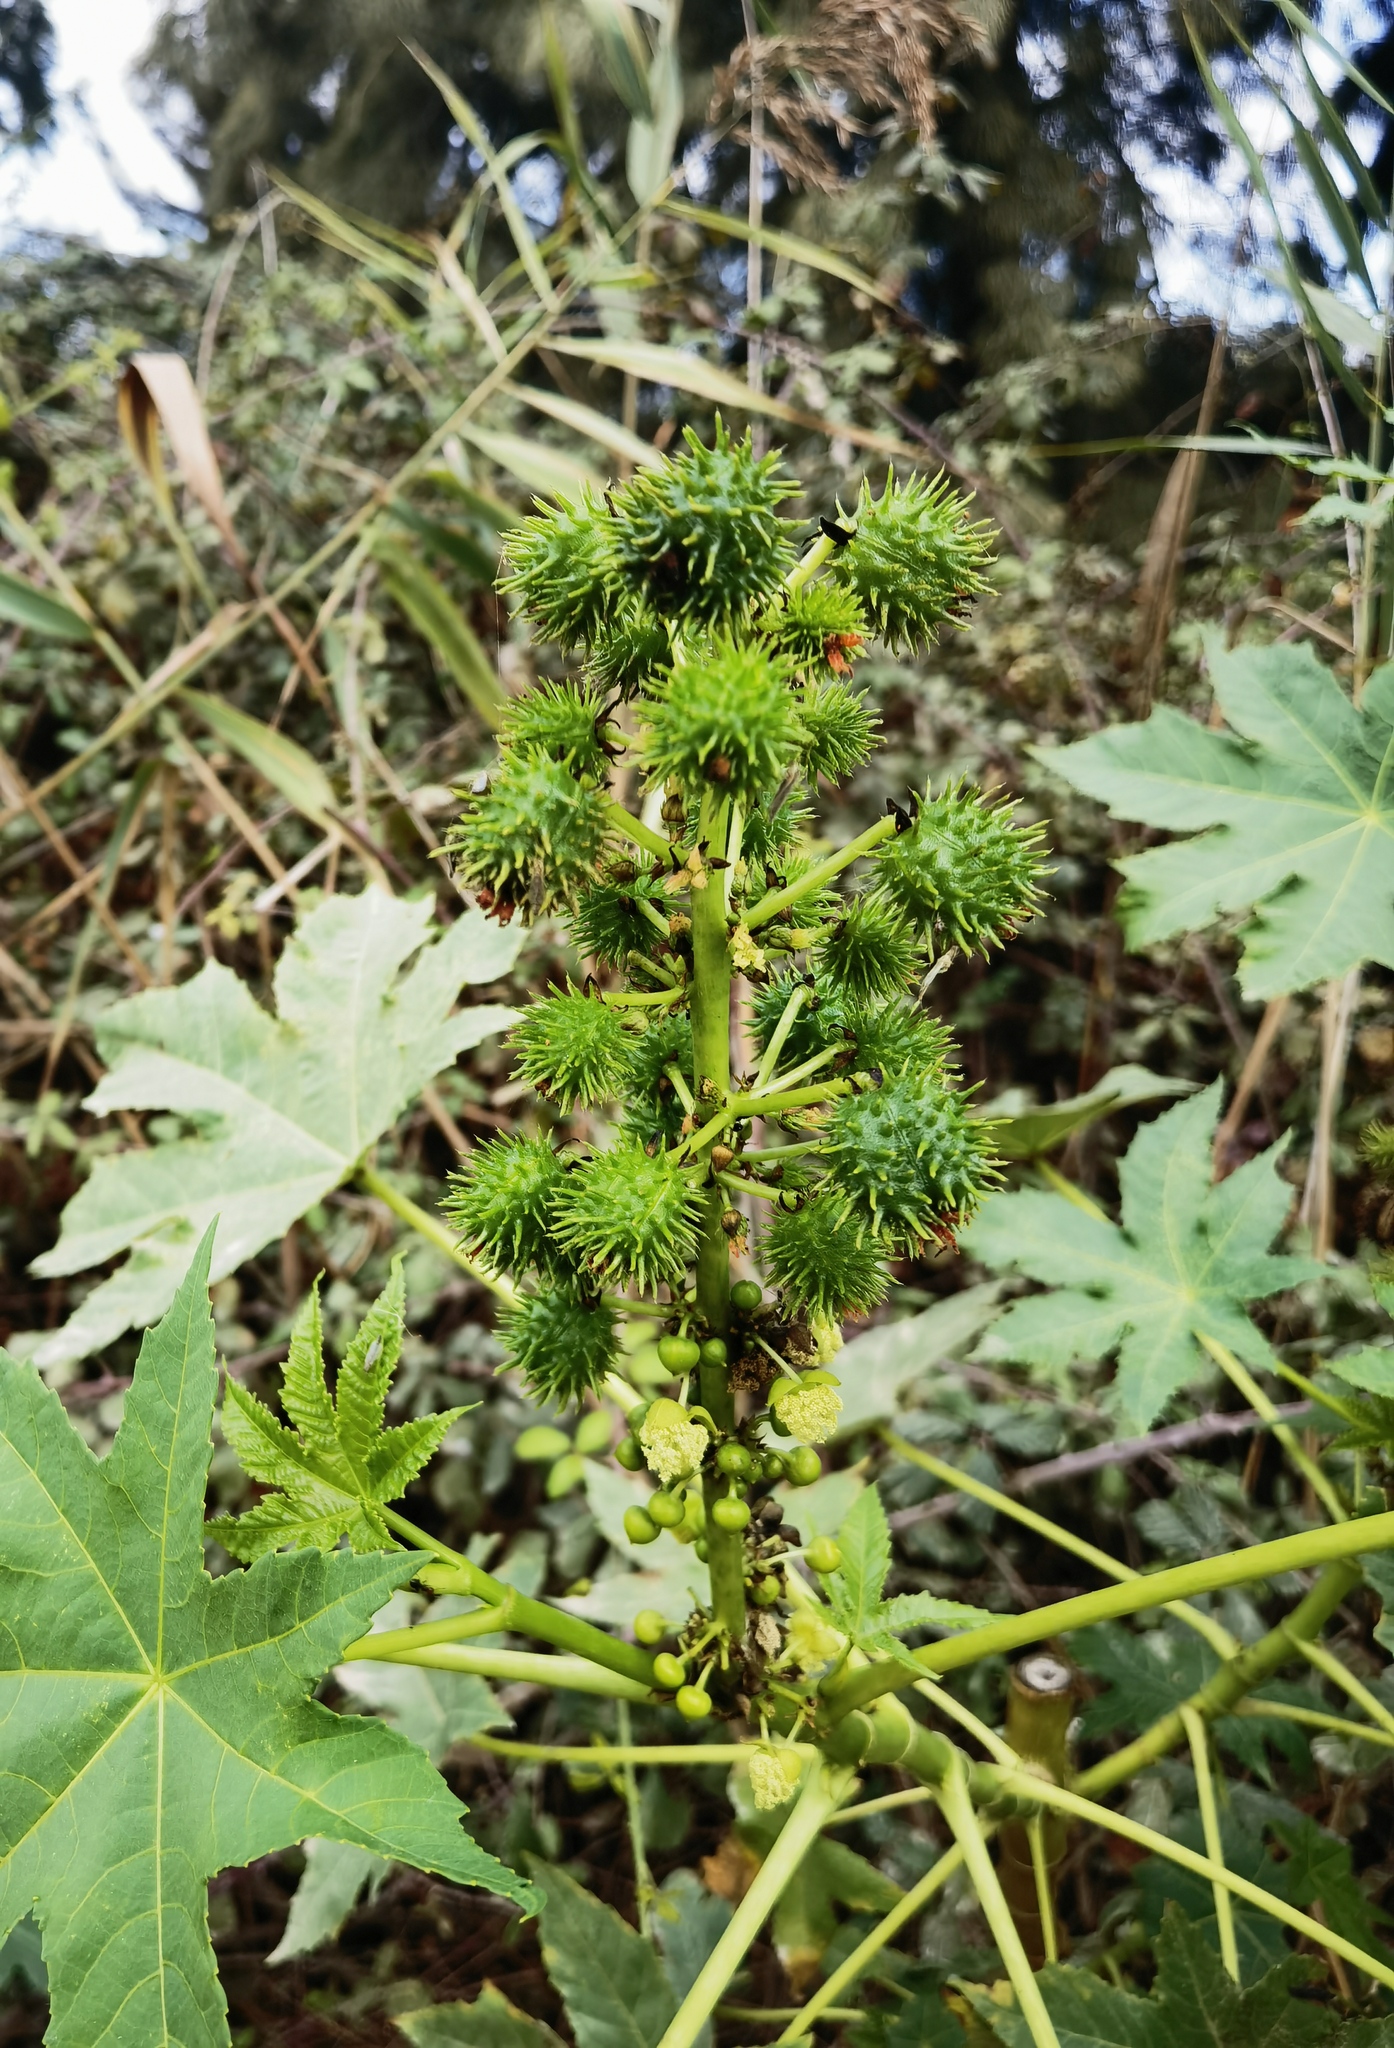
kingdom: Plantae
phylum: Tracheophyta
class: Magnoliopsida
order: Malpighiales
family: Euphorbiaceae
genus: Ricinus
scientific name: Ricinus communis
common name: Castor-oil-plant
